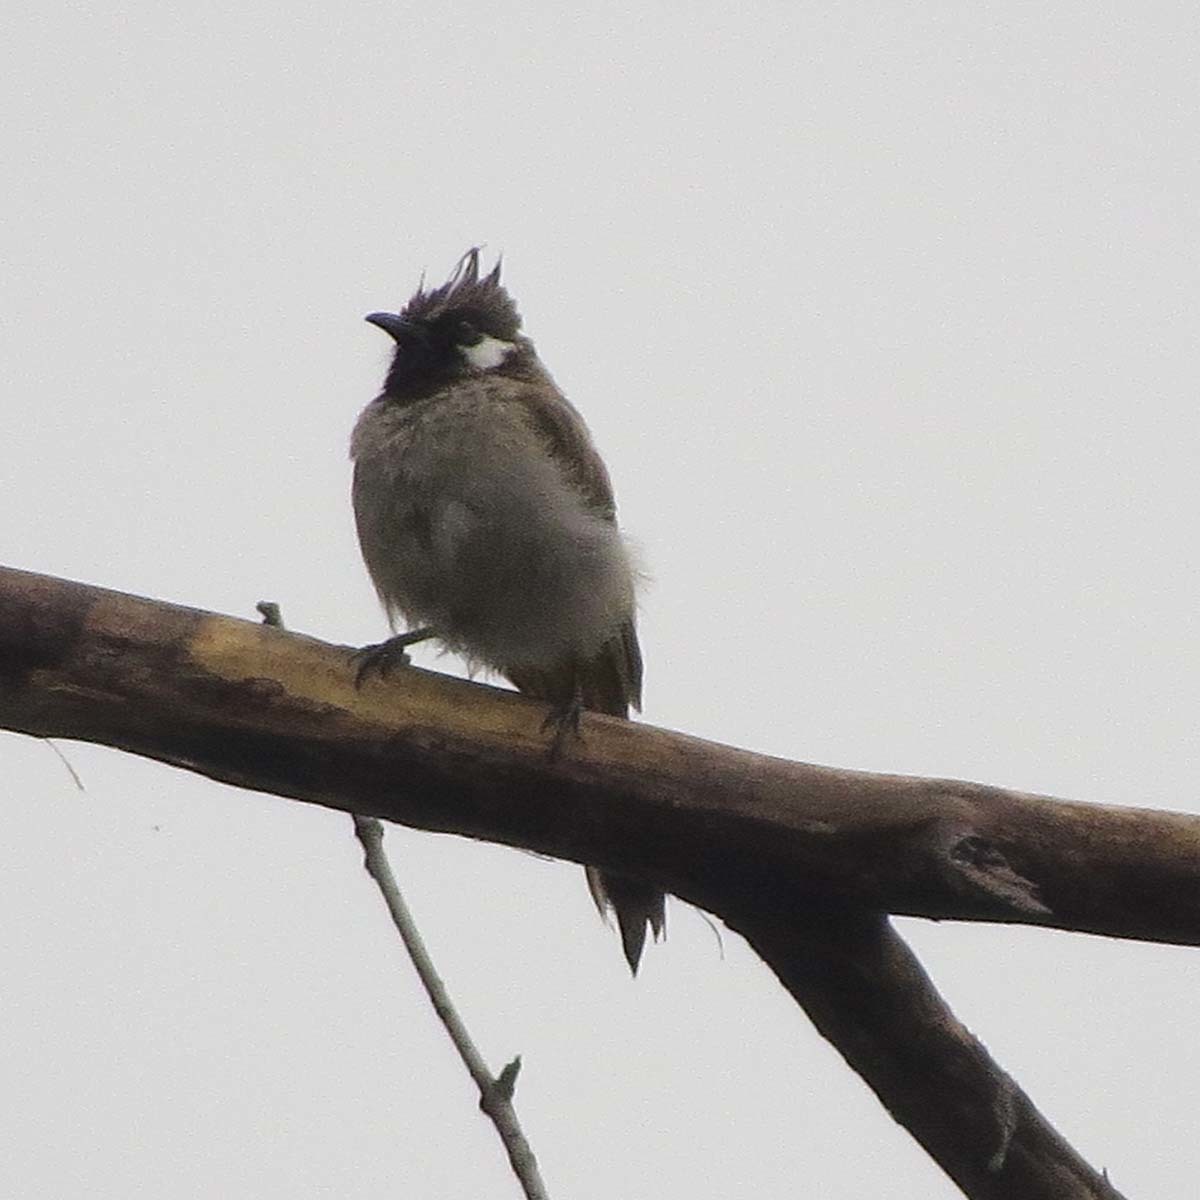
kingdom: Animalia
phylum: Chordata
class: Aves
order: Passeriformes
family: Pycnonotidae
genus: Pycnonotus
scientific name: Pycnonotus leucogenys
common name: Himalayan bulbul
